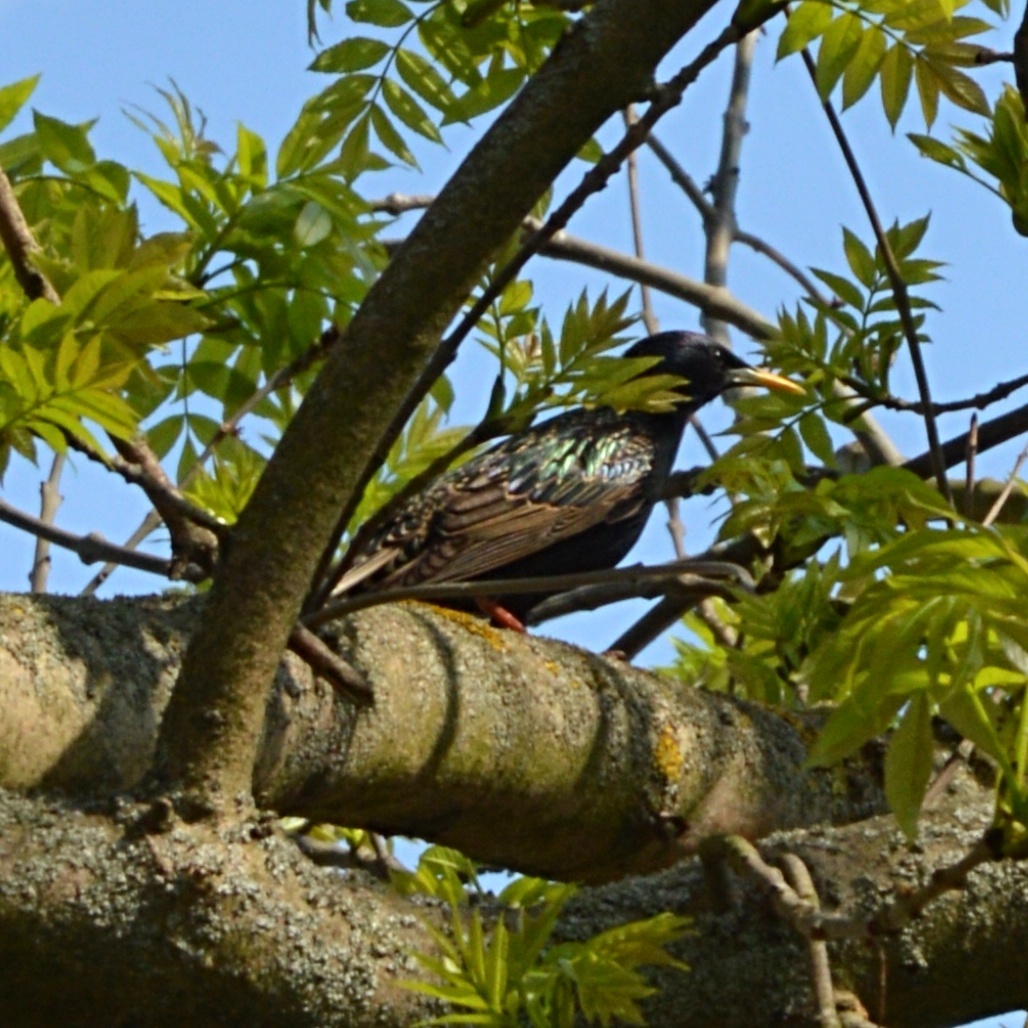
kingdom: Animalia
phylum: Chordata
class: Aves
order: Passeriformes
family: Sturnidae
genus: Sturnus
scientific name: Sturnus vulgaris
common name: Common starling
